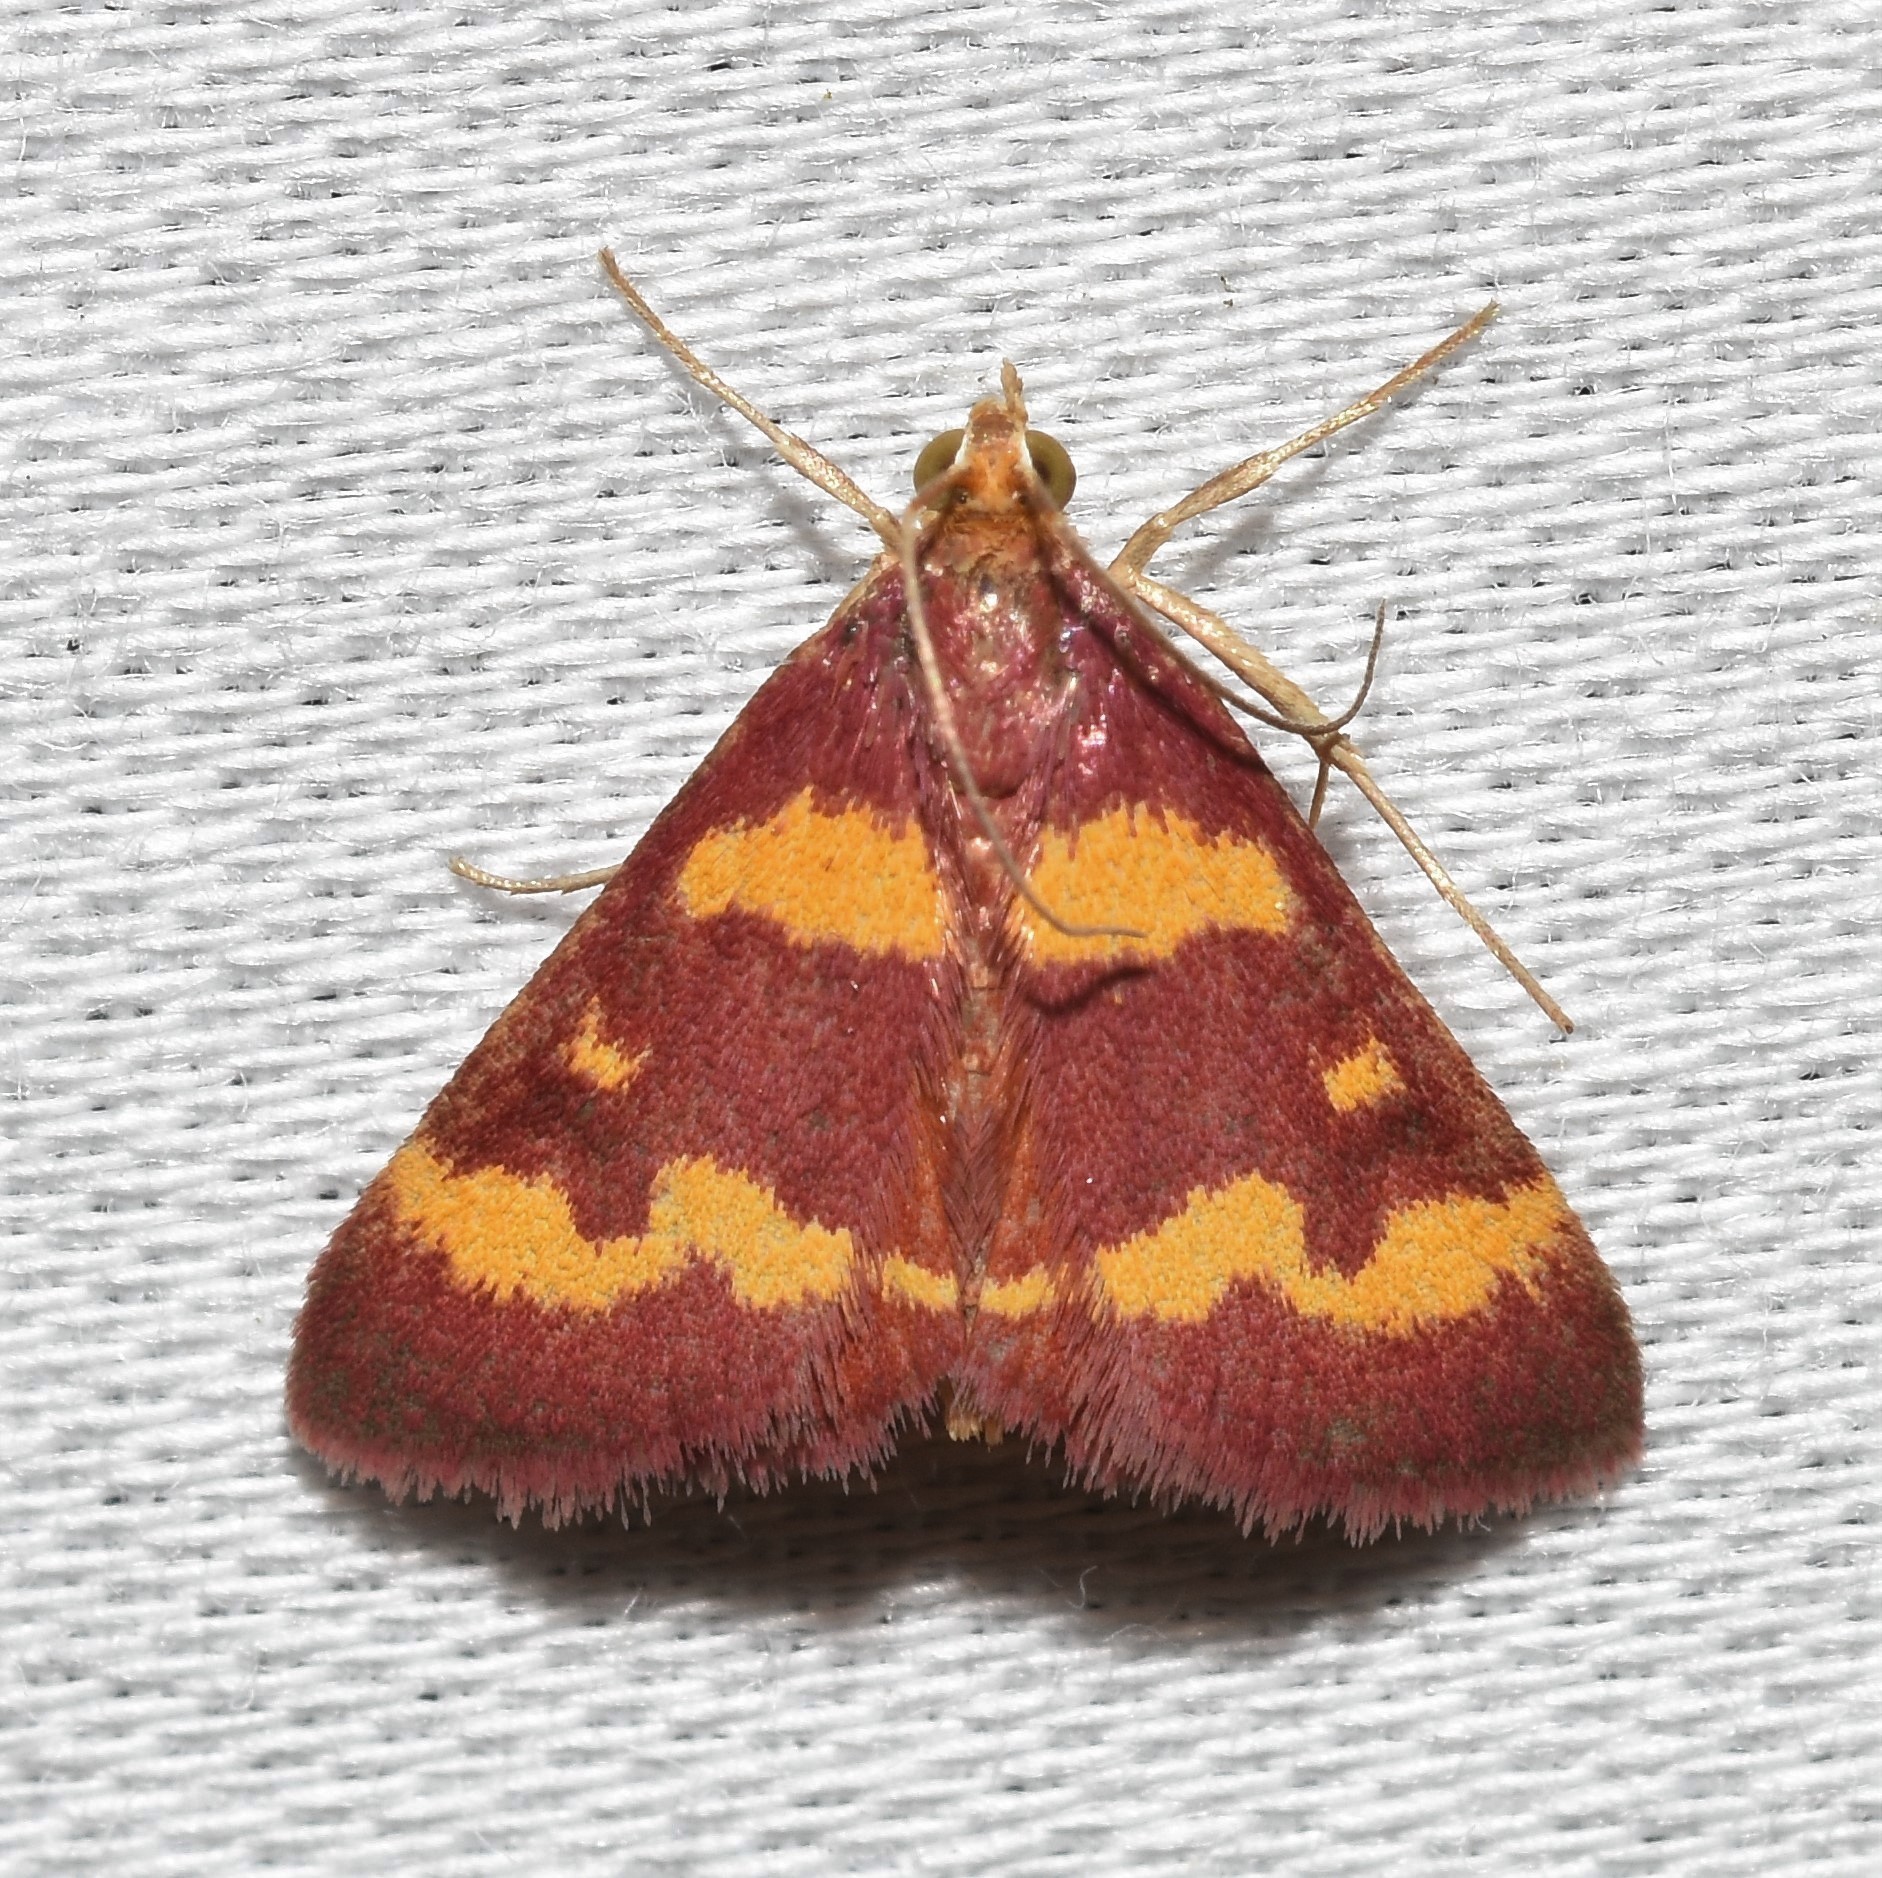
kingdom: Animalia
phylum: Arthropoda
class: Insecta
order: Lepidoptera
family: Crambidae
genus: Pyrausta
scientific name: Pyrausta tyralis
